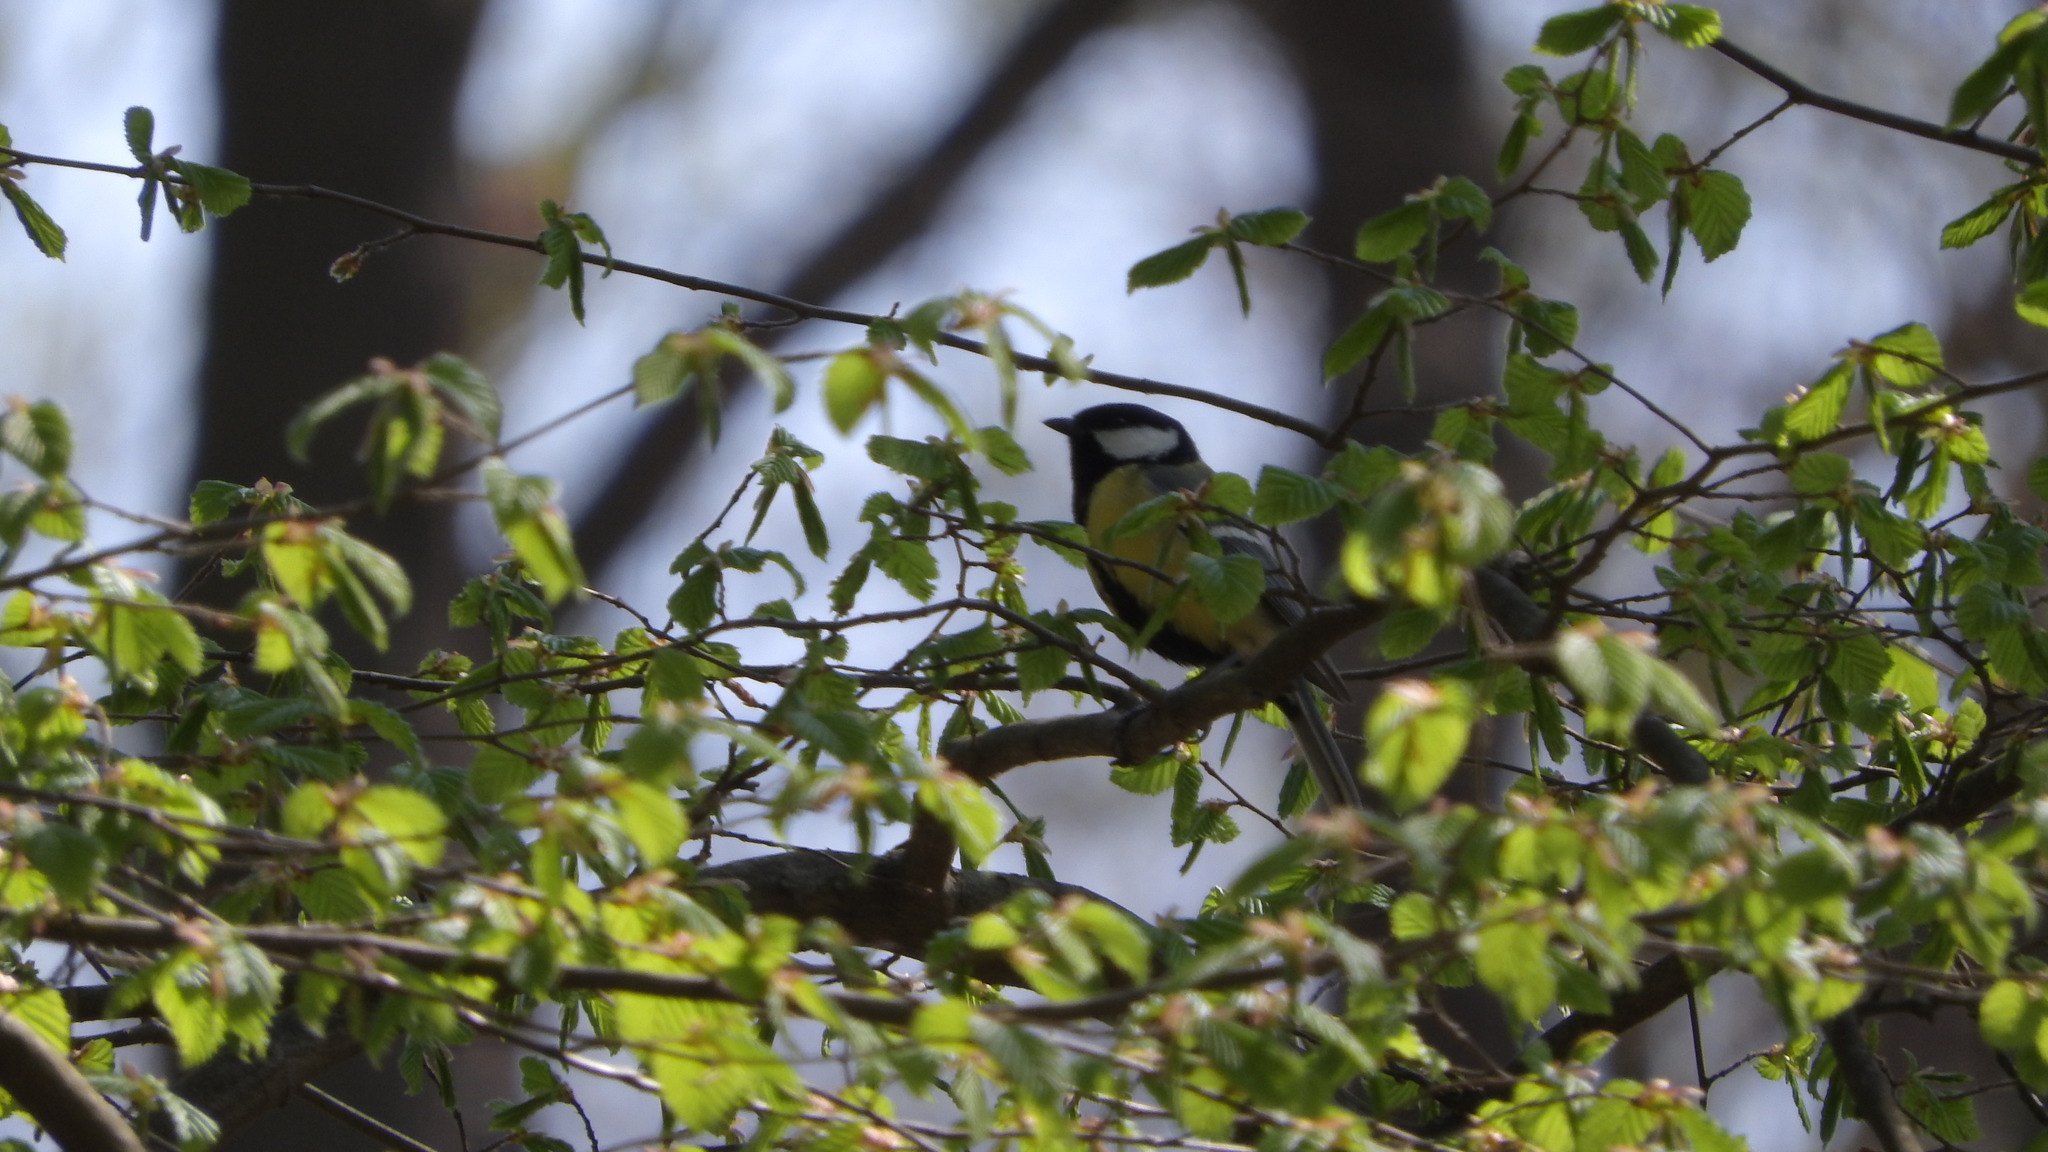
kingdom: Animalia
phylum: Chordata
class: Aves
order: Passeriformes
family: Paridae
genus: Parus
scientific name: Parus major
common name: Great tit
